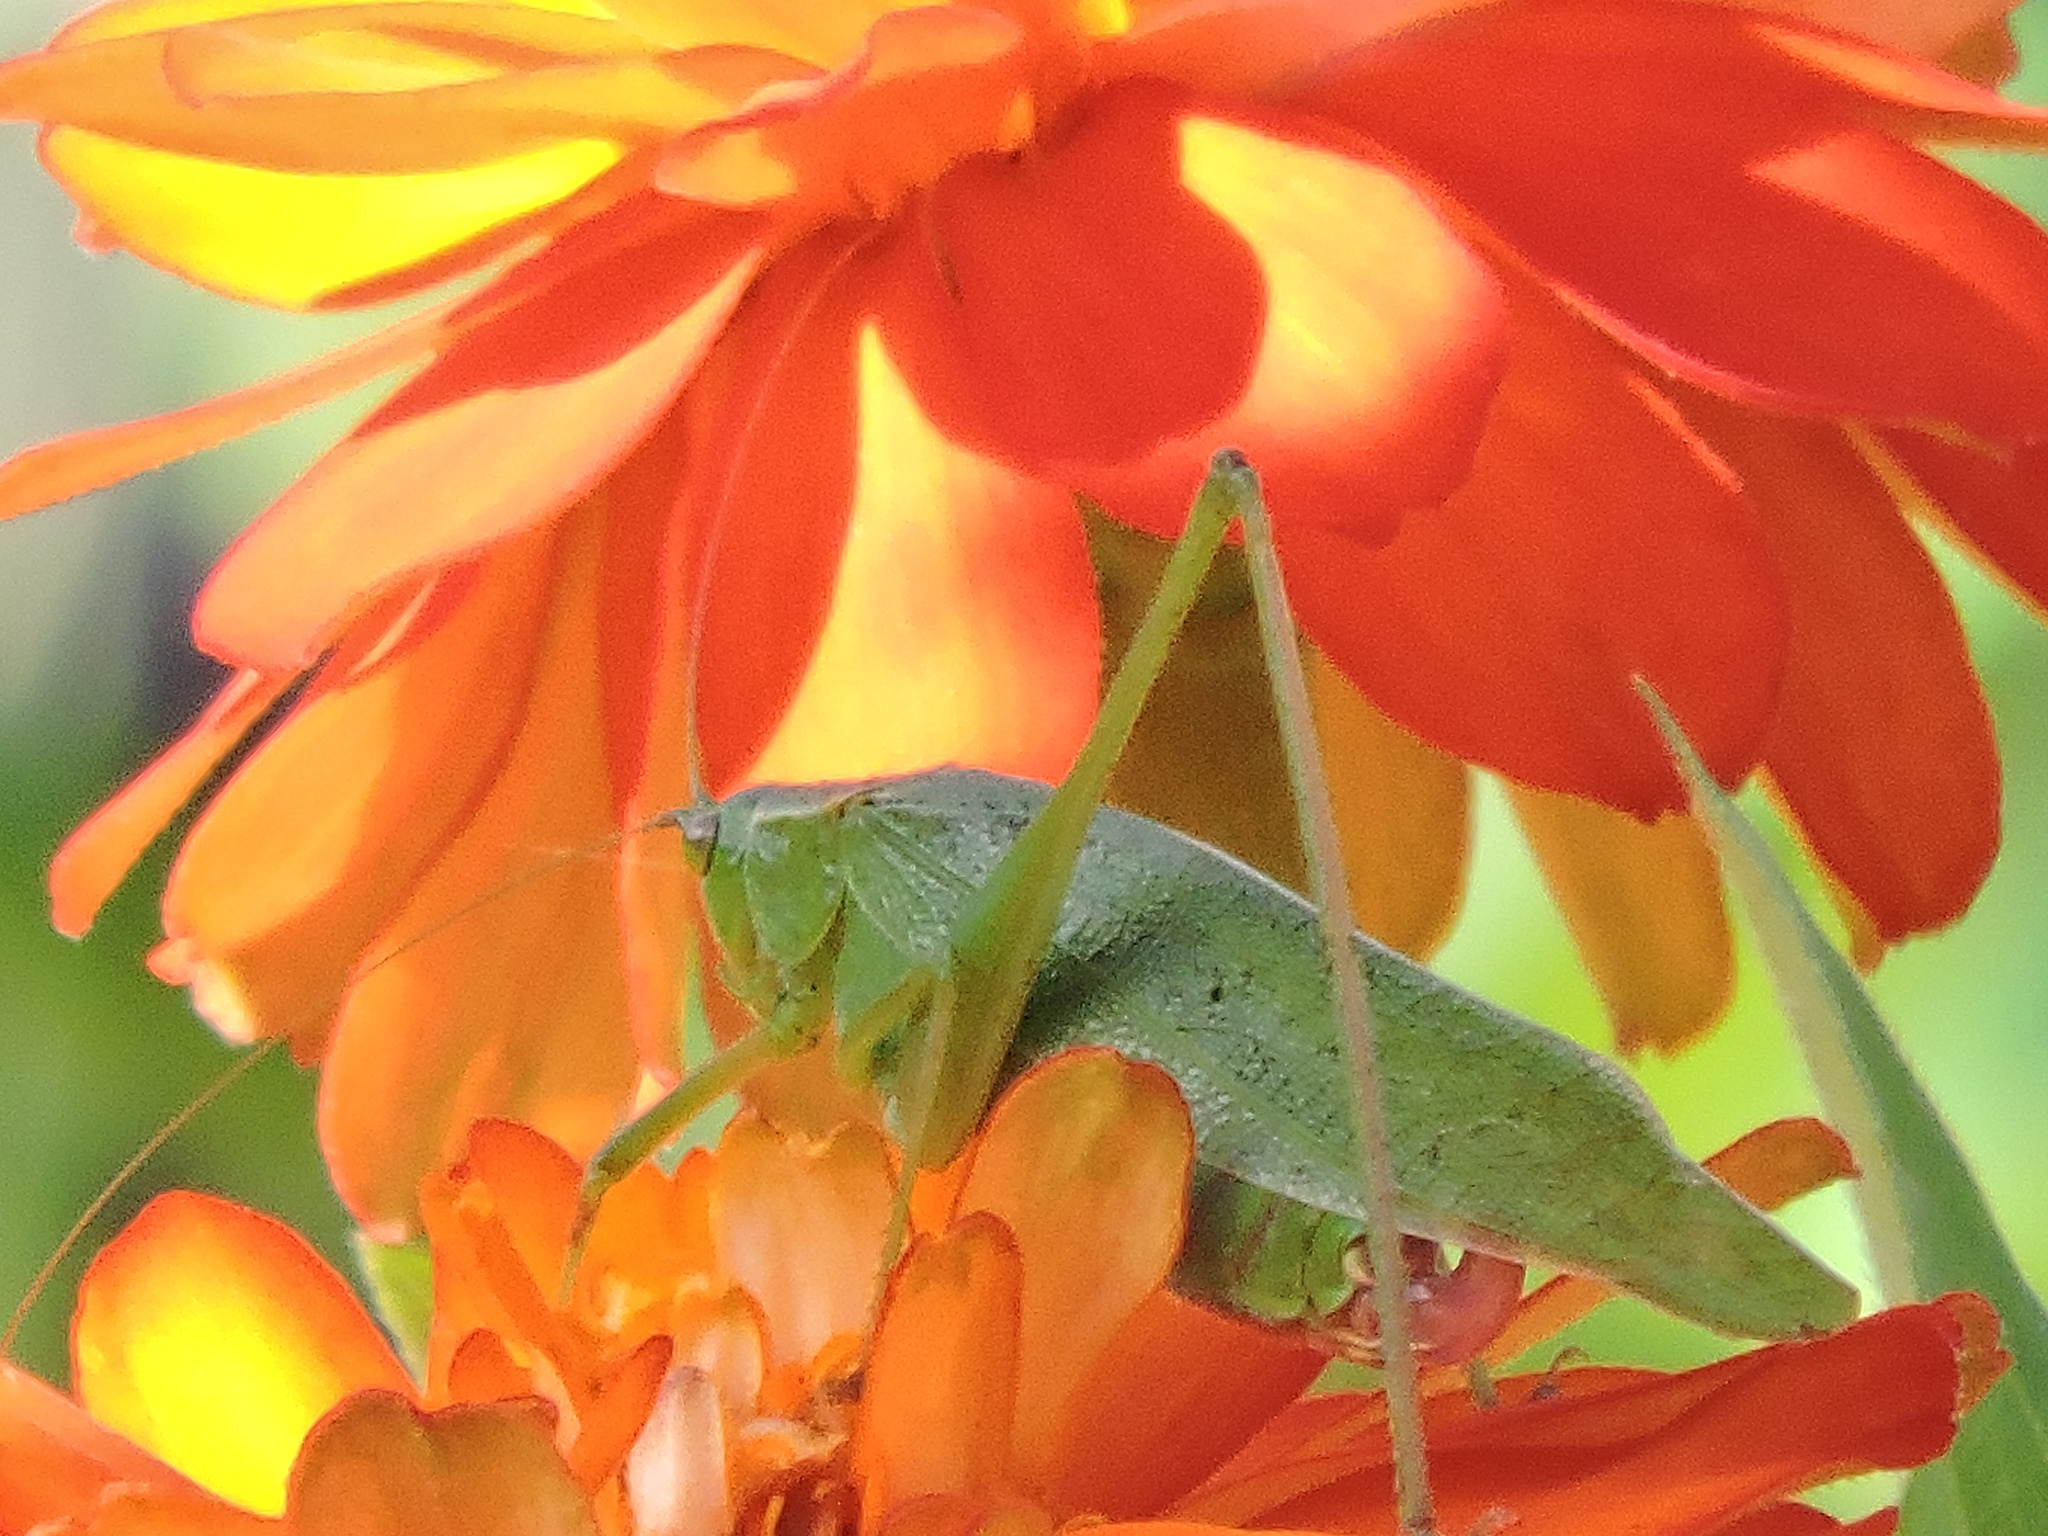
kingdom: Animalia
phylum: Arthropoda
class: Insecta
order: Orthoptera
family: Tettigoniidae
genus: Scudderia
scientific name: Scudderia furcata
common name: Fork-tailed bush katydid
